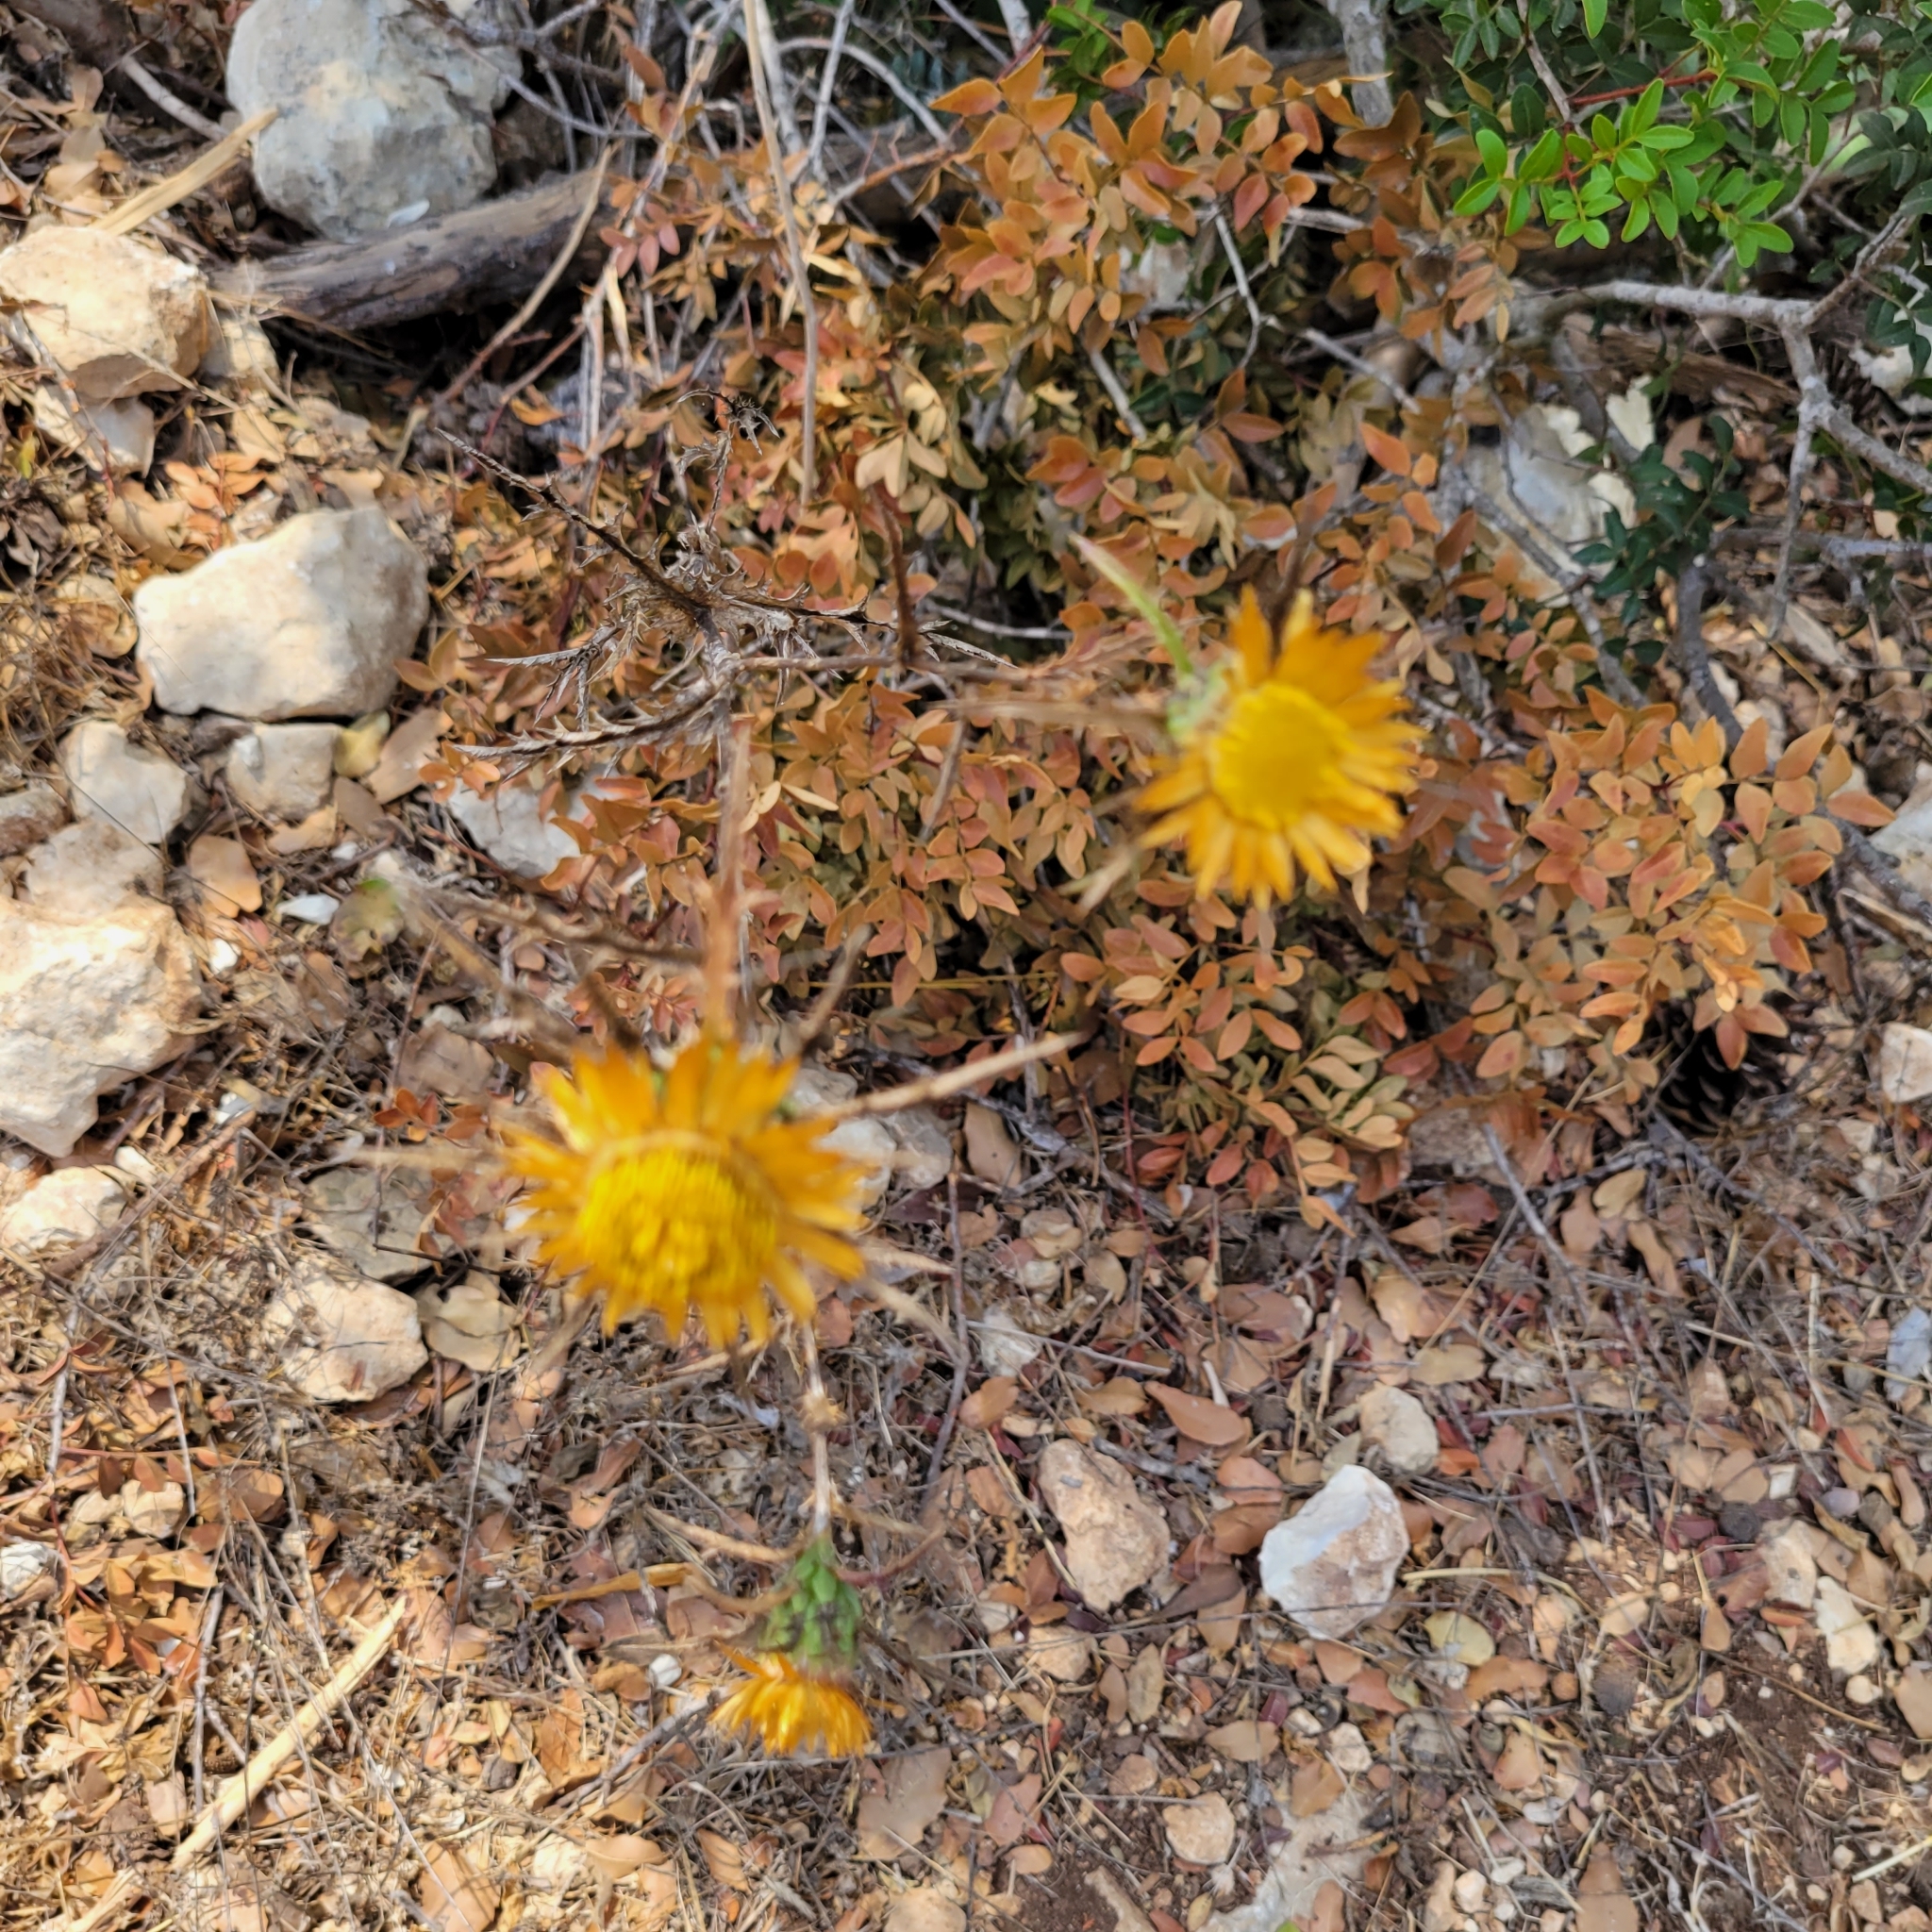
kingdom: Plantae
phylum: Tracheophyta
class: Magnoliopsida
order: Asterales
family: Asteraceae
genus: Carlina
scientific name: Carlina curetum
